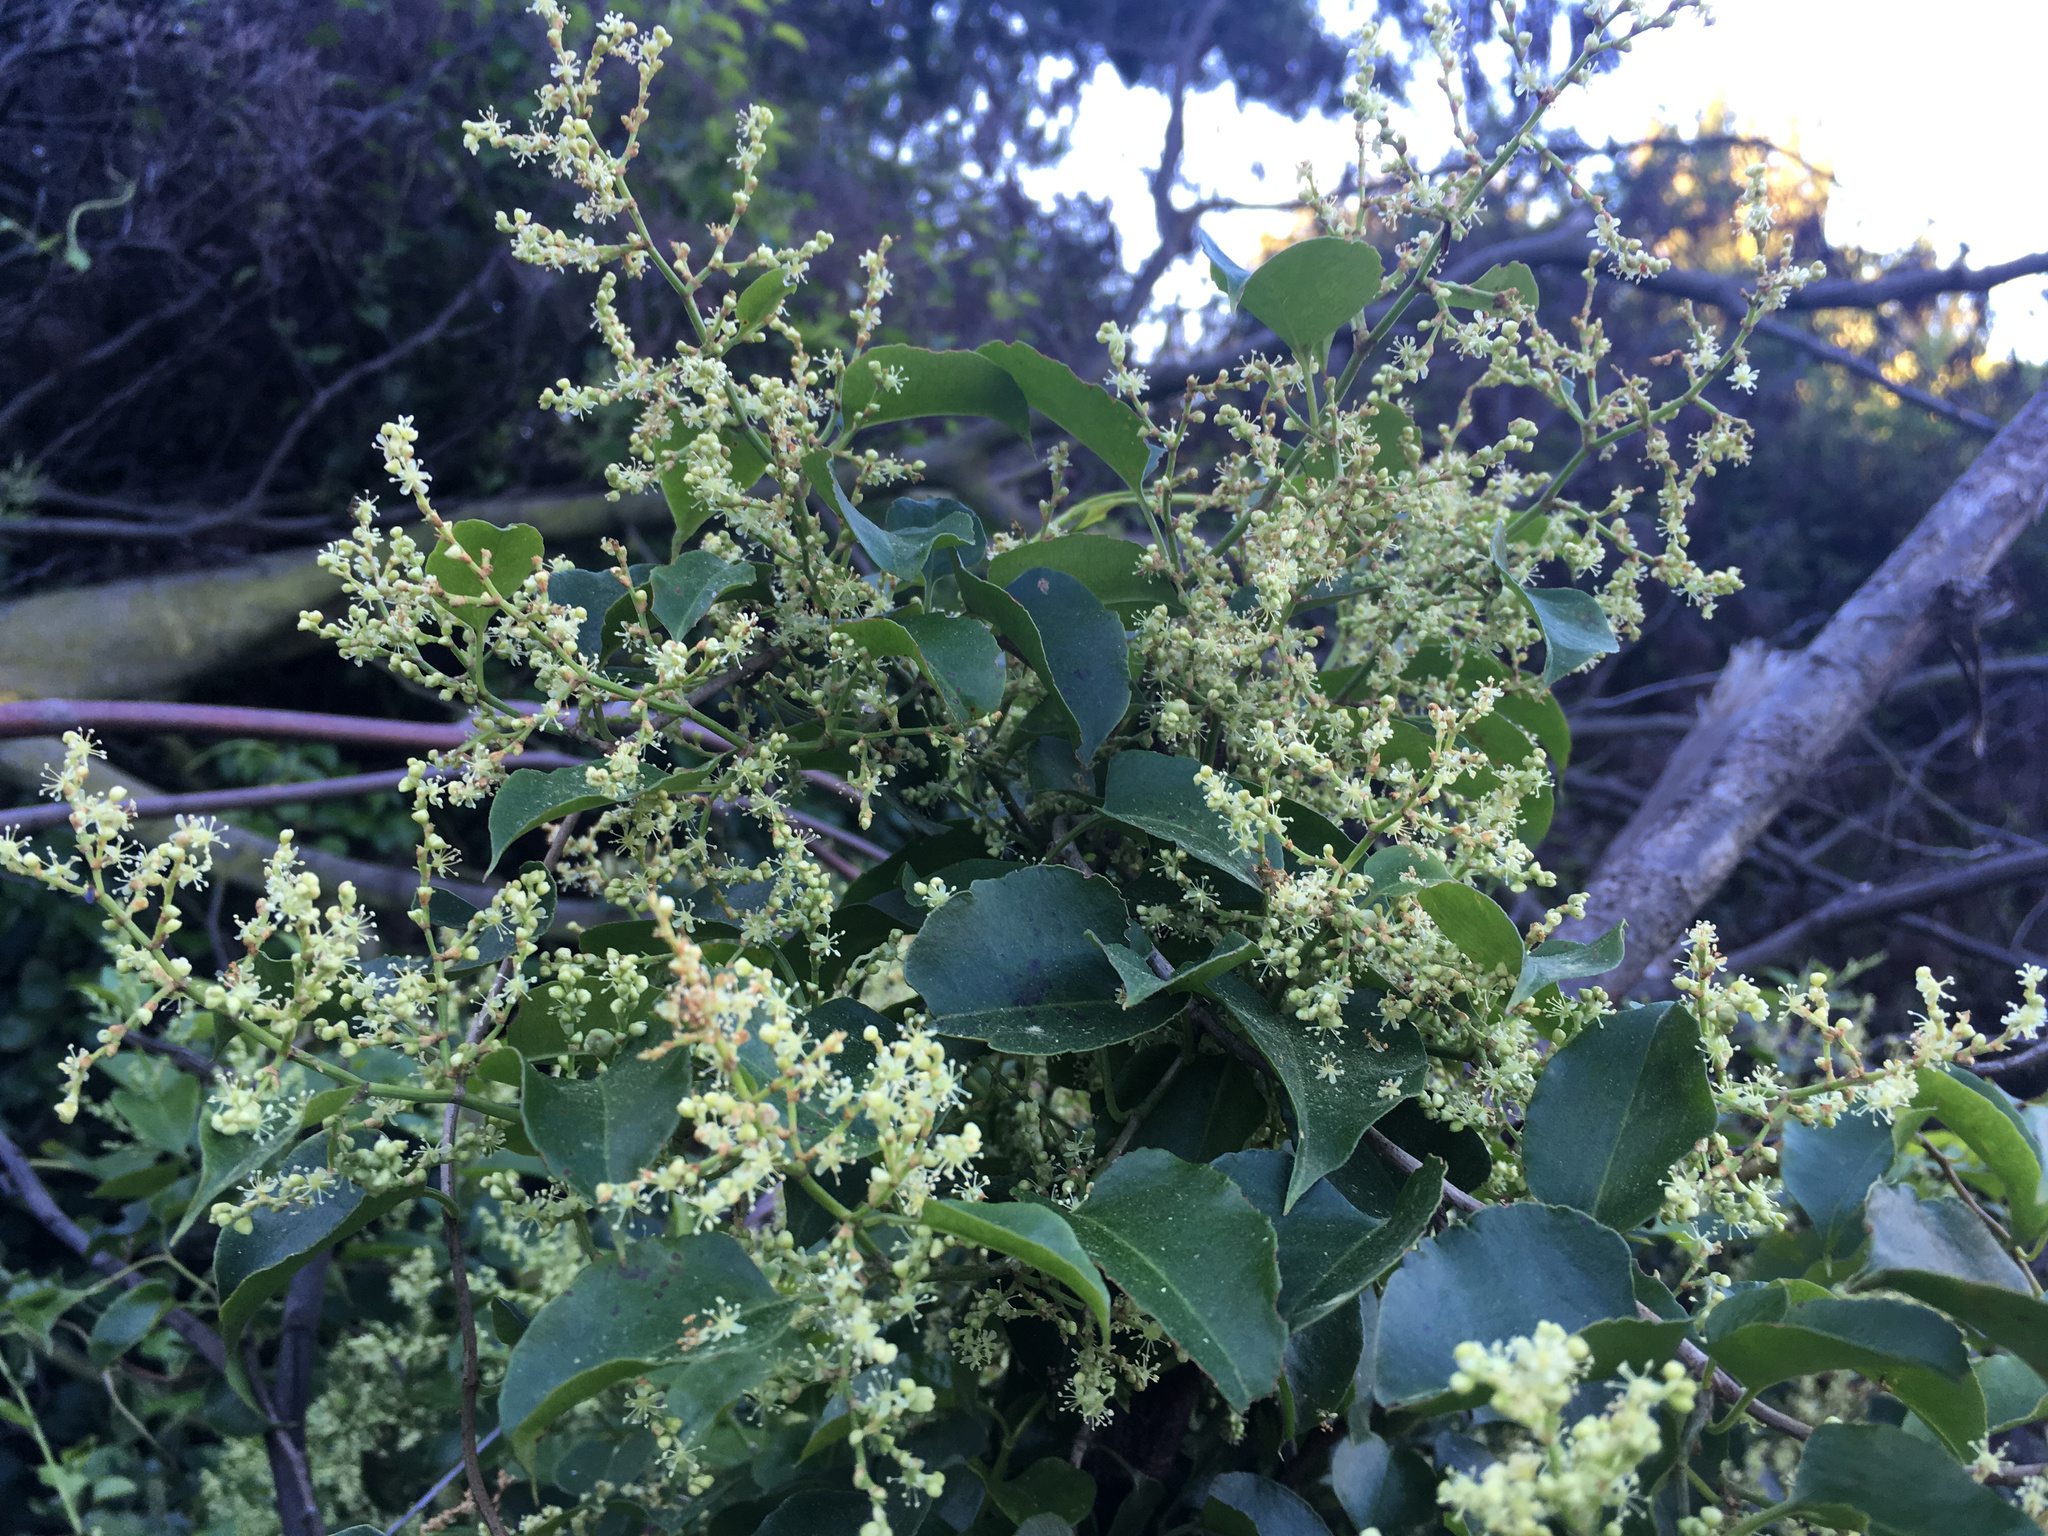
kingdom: Plantae
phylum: Tracheophyta
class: Magnoliopsida
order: Caryophyllales
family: Polygonaceae
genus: Muehlenbeckia
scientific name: Muehlenbeckia australis
